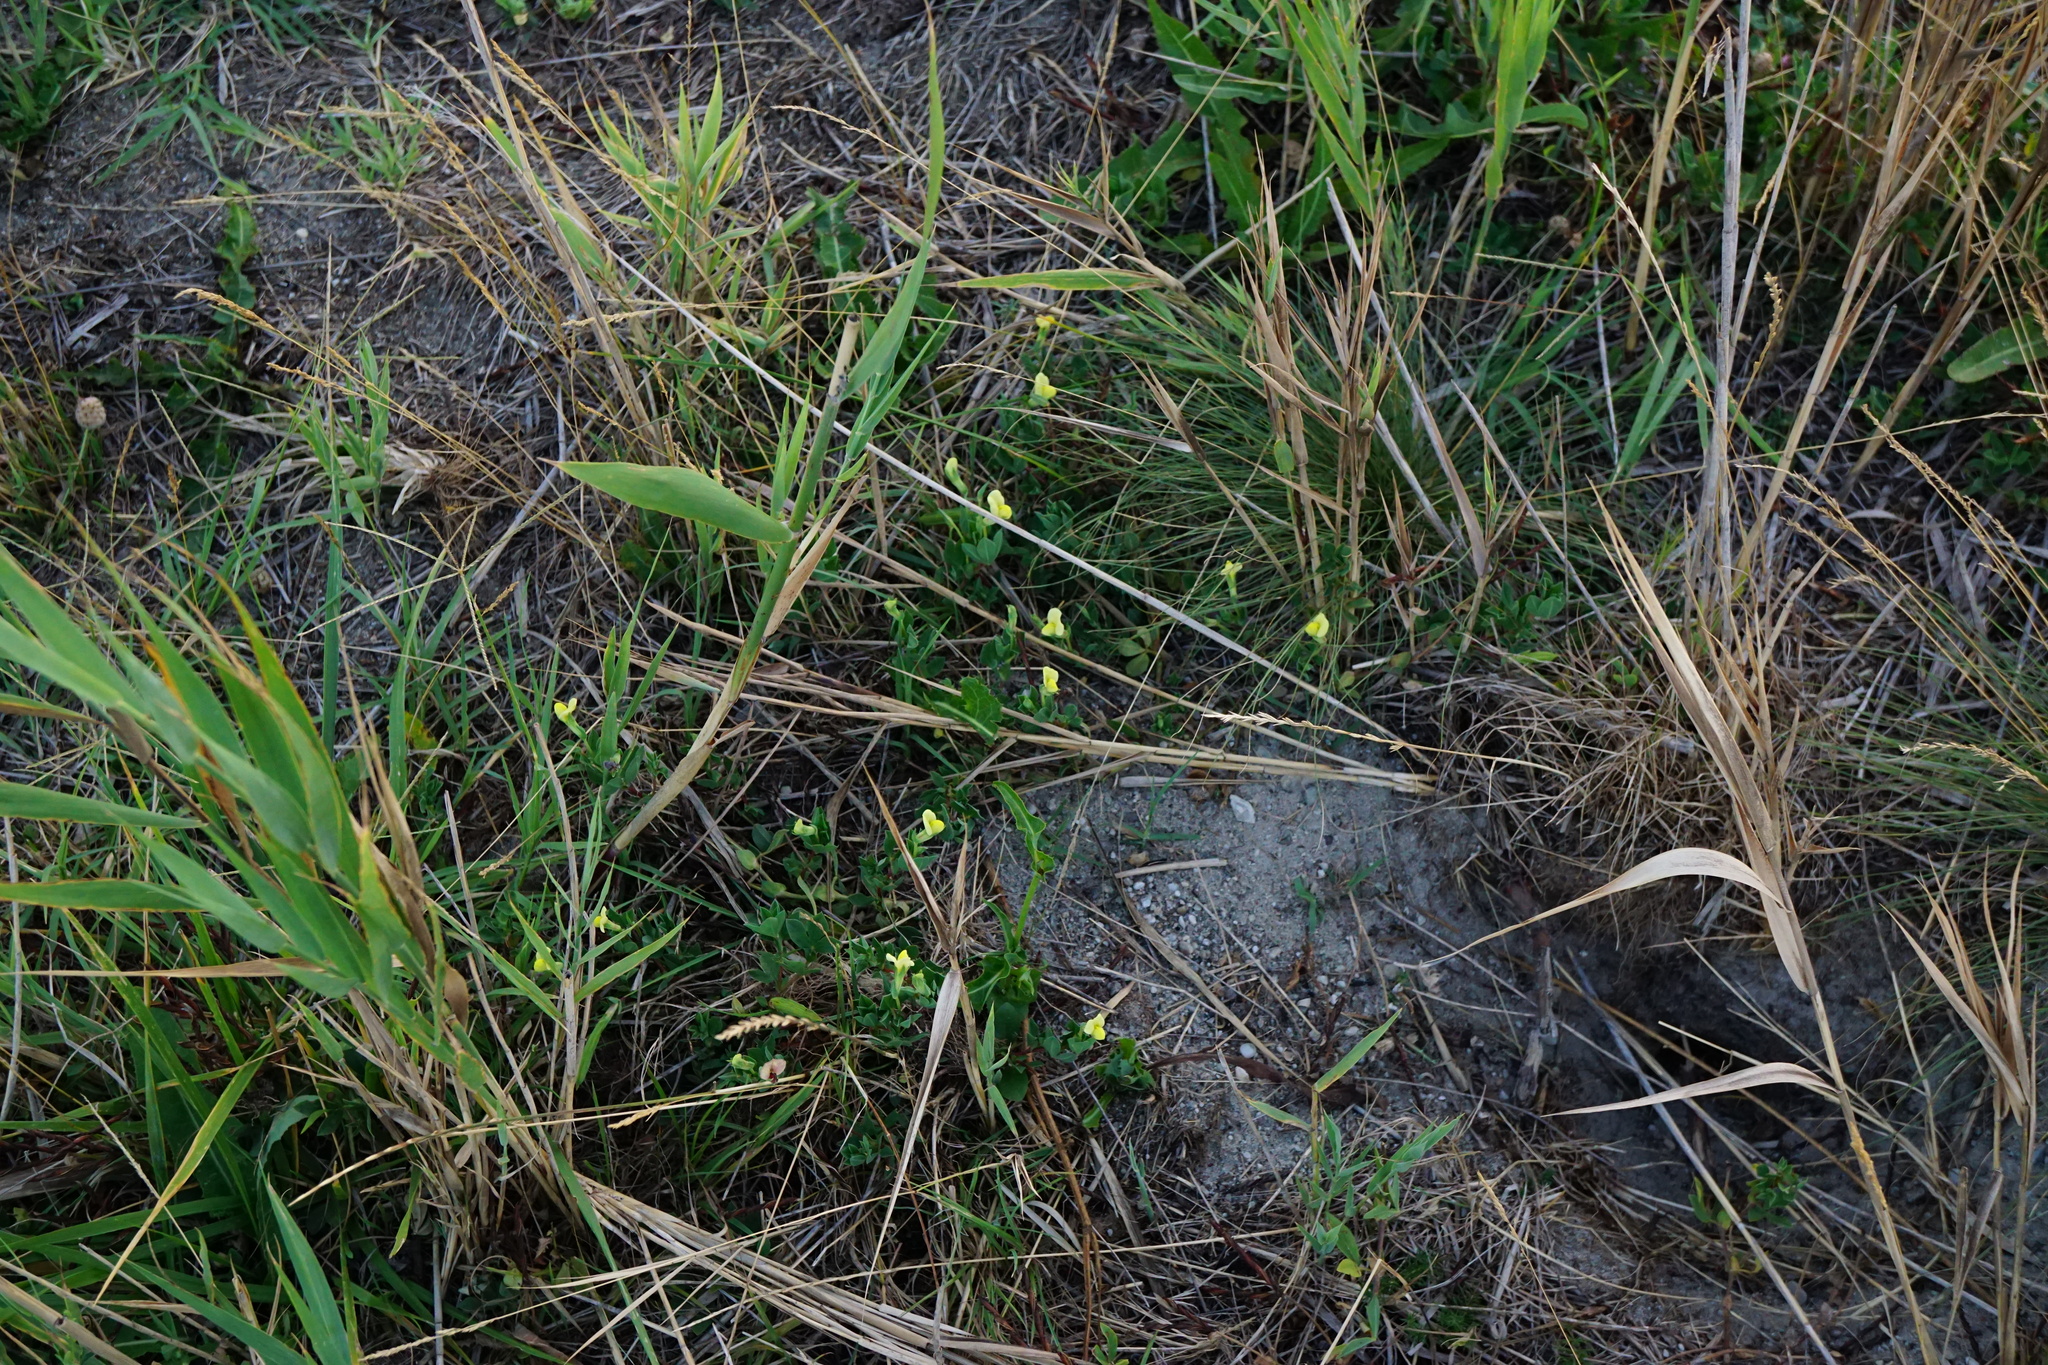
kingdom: Plantae
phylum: Tracheophyta
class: Magnoliopsida
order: Fabales
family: Fabaceae
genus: Lotus
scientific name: Lotus maritimus
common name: Dragon's-teeth
